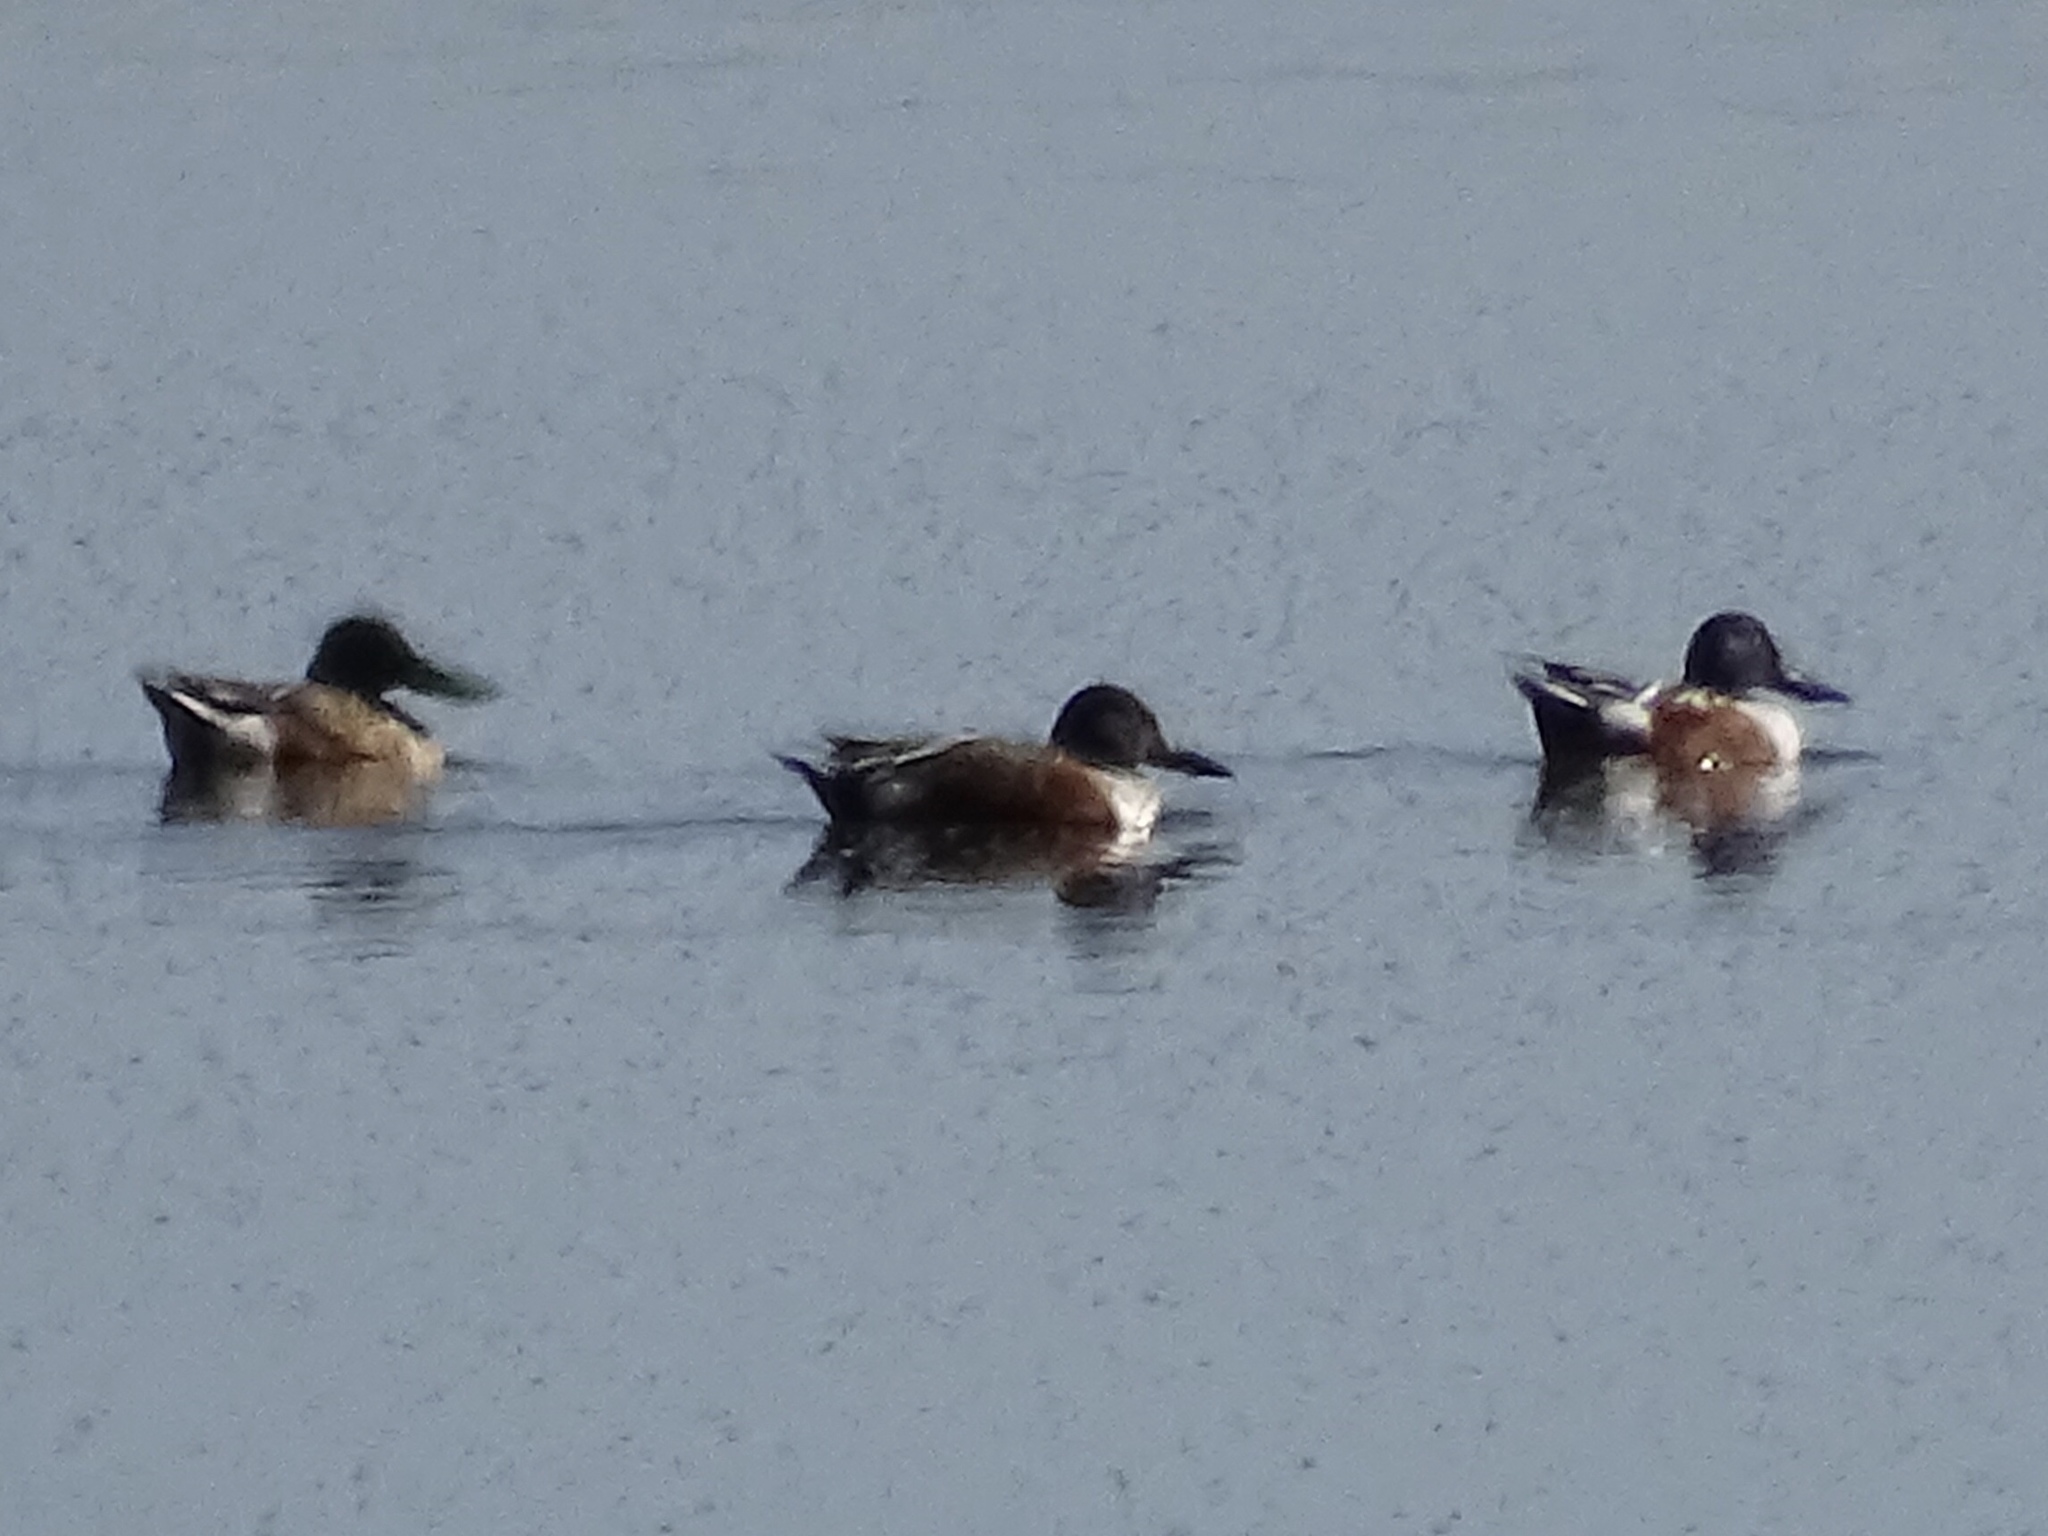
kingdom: Animalia
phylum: Chordata
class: Aves
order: Anseriformes
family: Anatidae
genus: Spatula
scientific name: Spatula clypeata
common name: Northern shoveler
